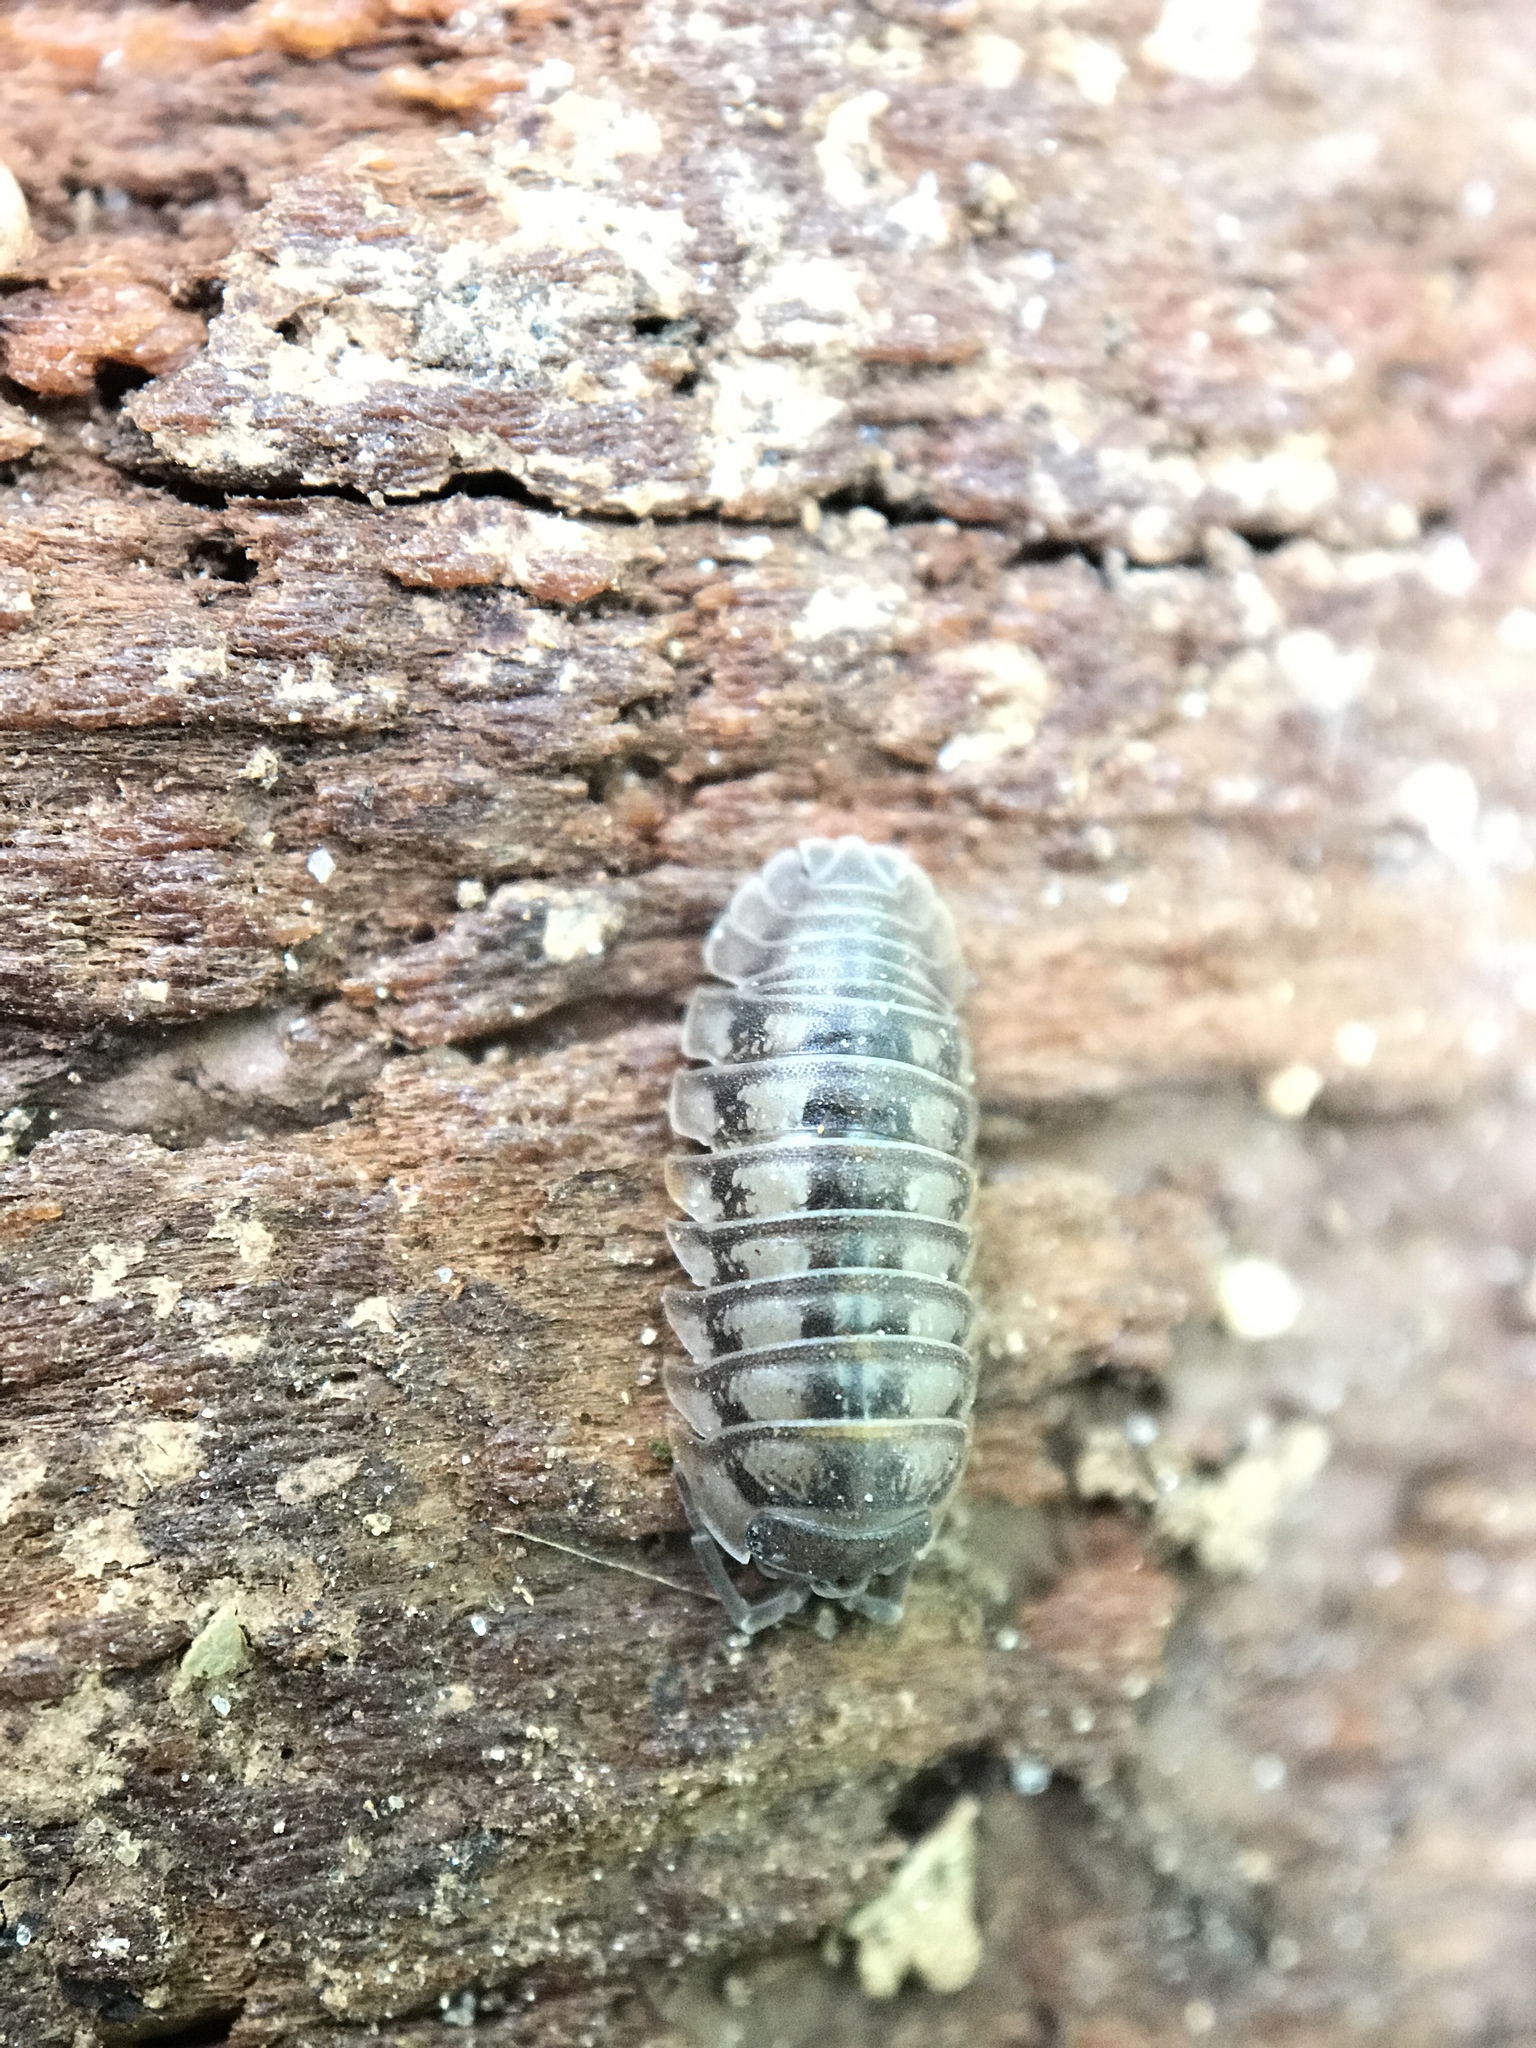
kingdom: Animalia
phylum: Arthropoda
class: Malacostraca
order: Isopoda
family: Armadillidiidae
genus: Armadillidium
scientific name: Armadillidium nasatum
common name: Isopod
